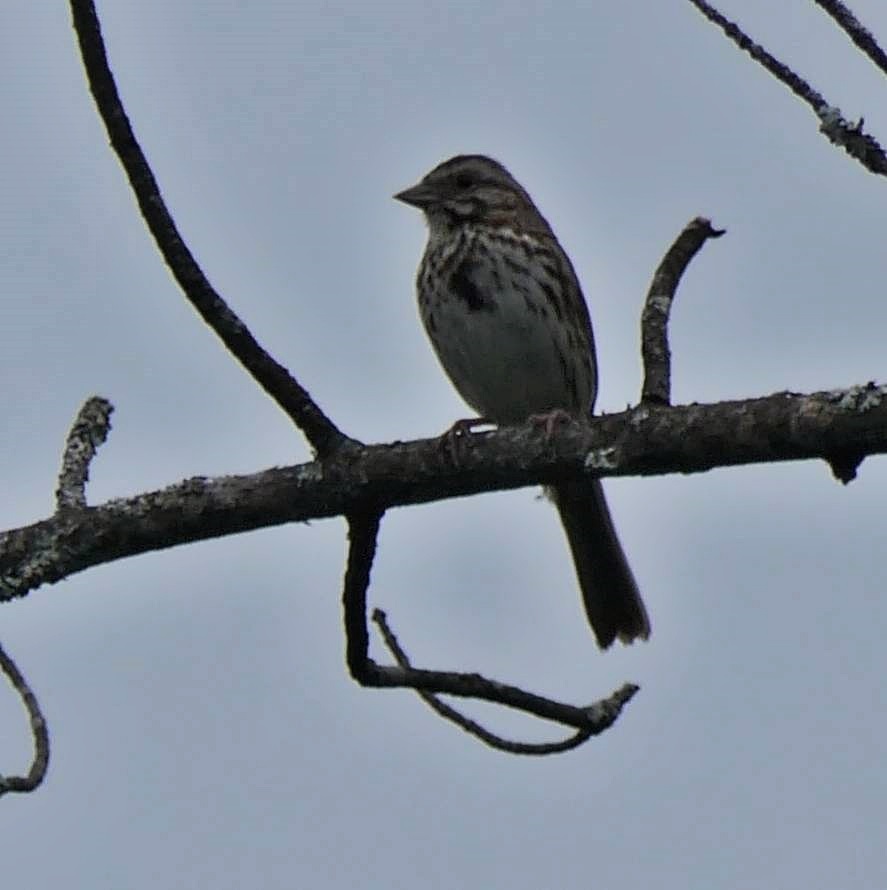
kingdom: Animalia
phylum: Chordata
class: Aves
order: Passeriformes
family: Passerellidae
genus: Melospiza
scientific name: Melospiza melodia
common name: Song sparrow
